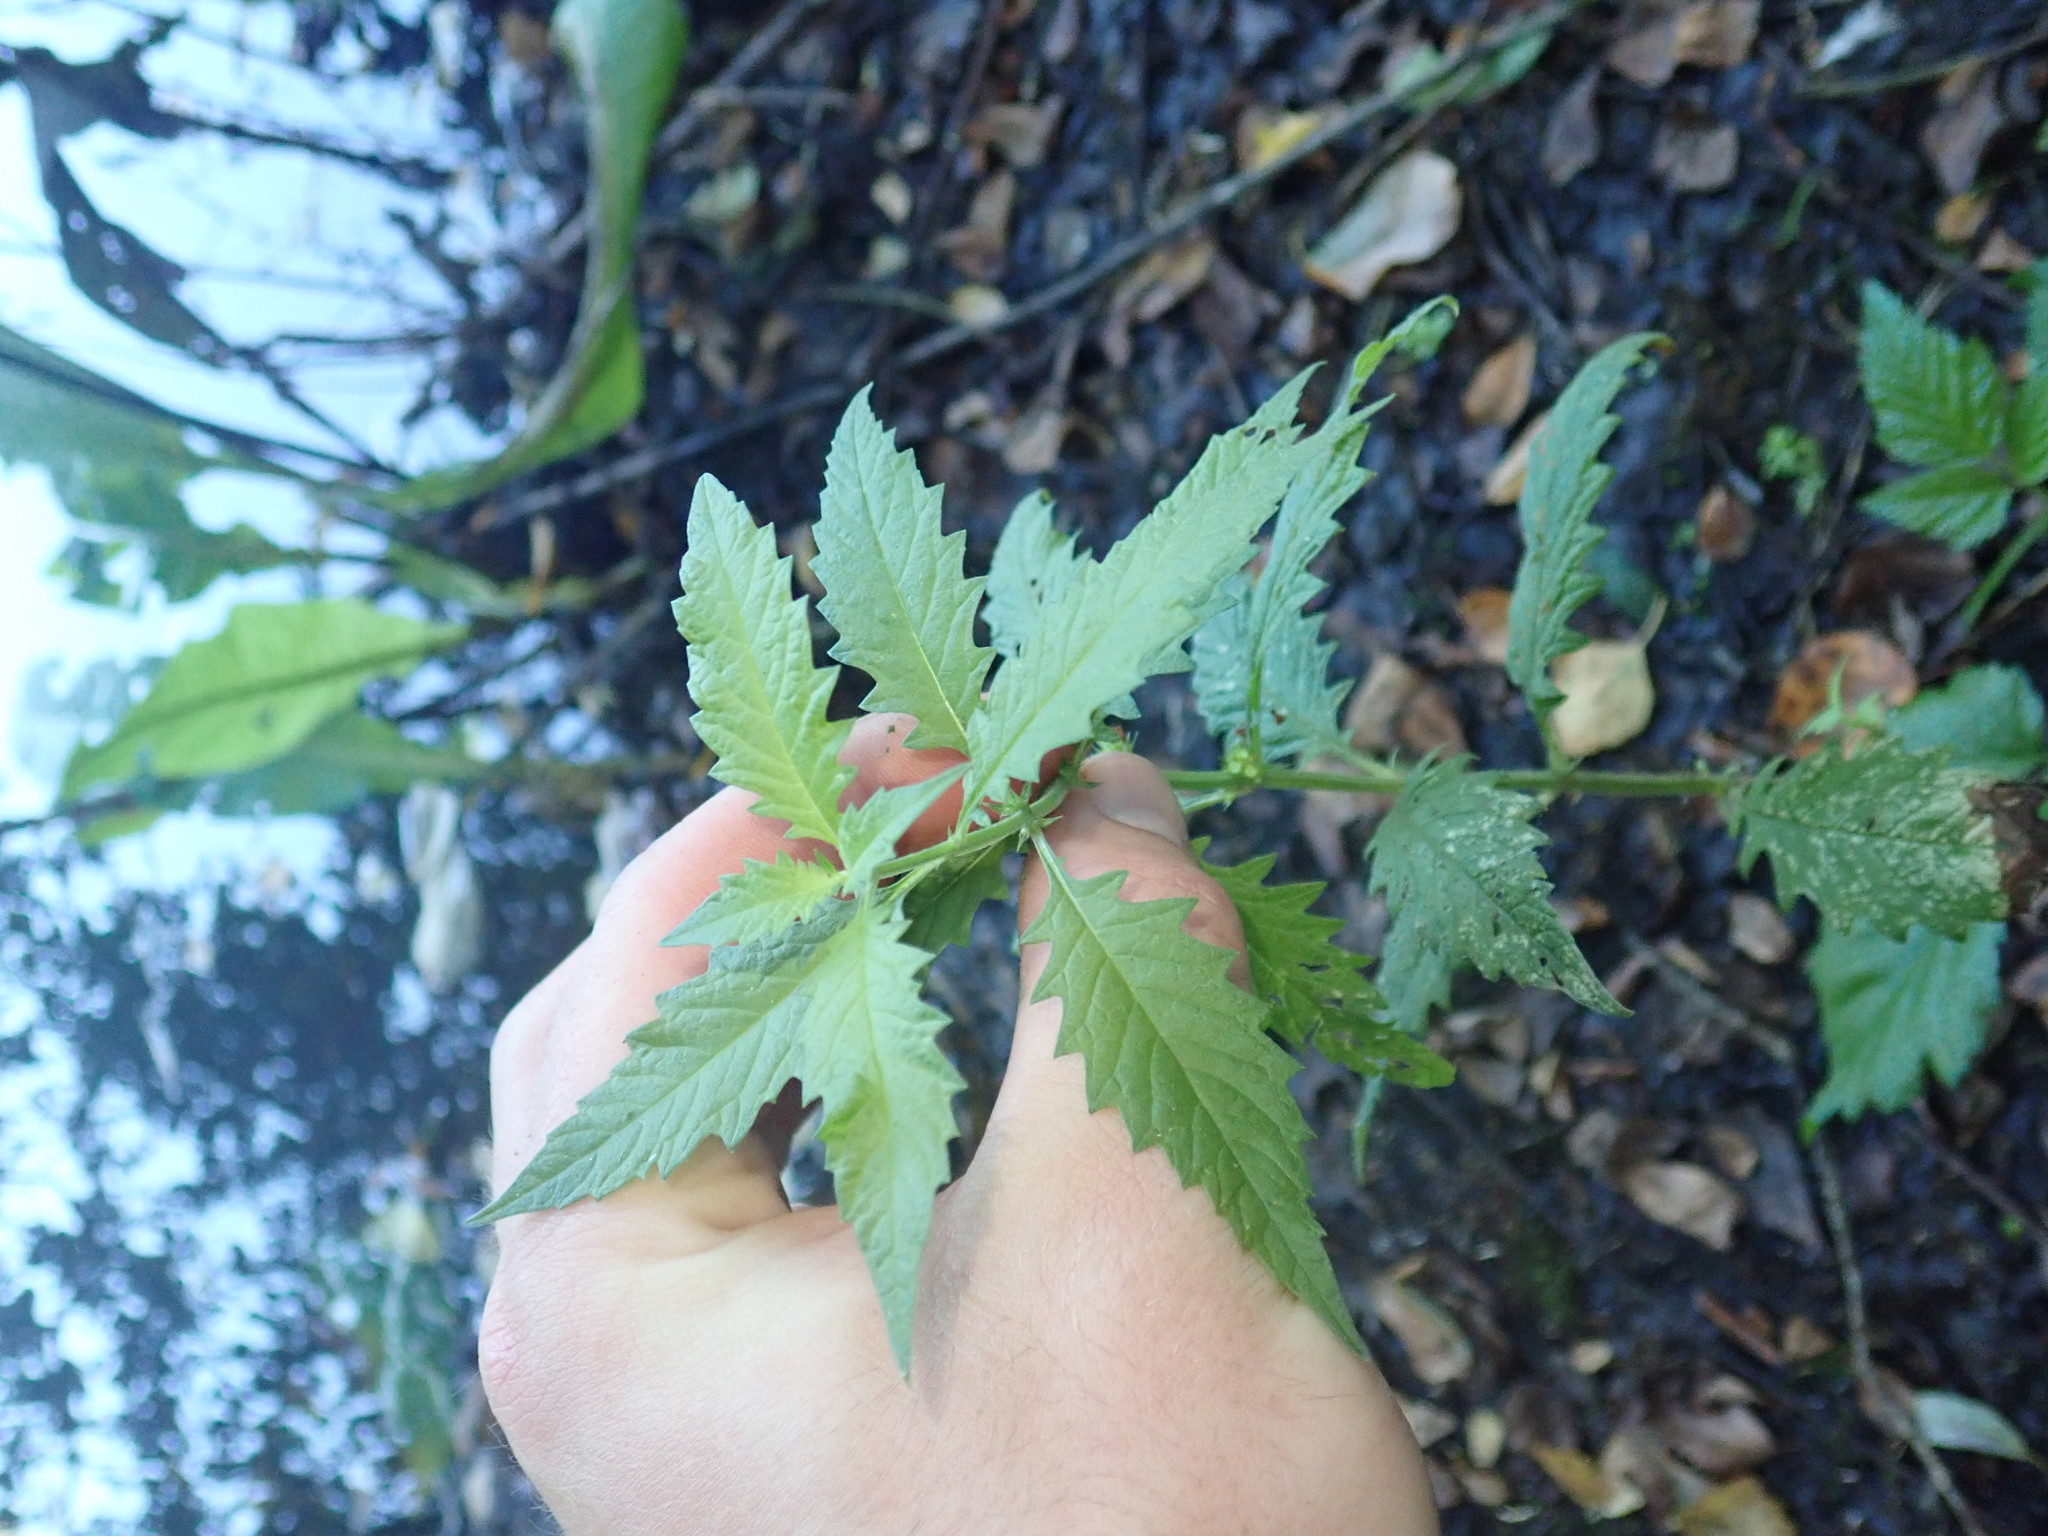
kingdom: Plantae
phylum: Tracheophyta
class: Magnoliopsida
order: Lamiales
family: Lamiaceae
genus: Lycopus
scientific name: Lycopus europaeus
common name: European bugleweed
